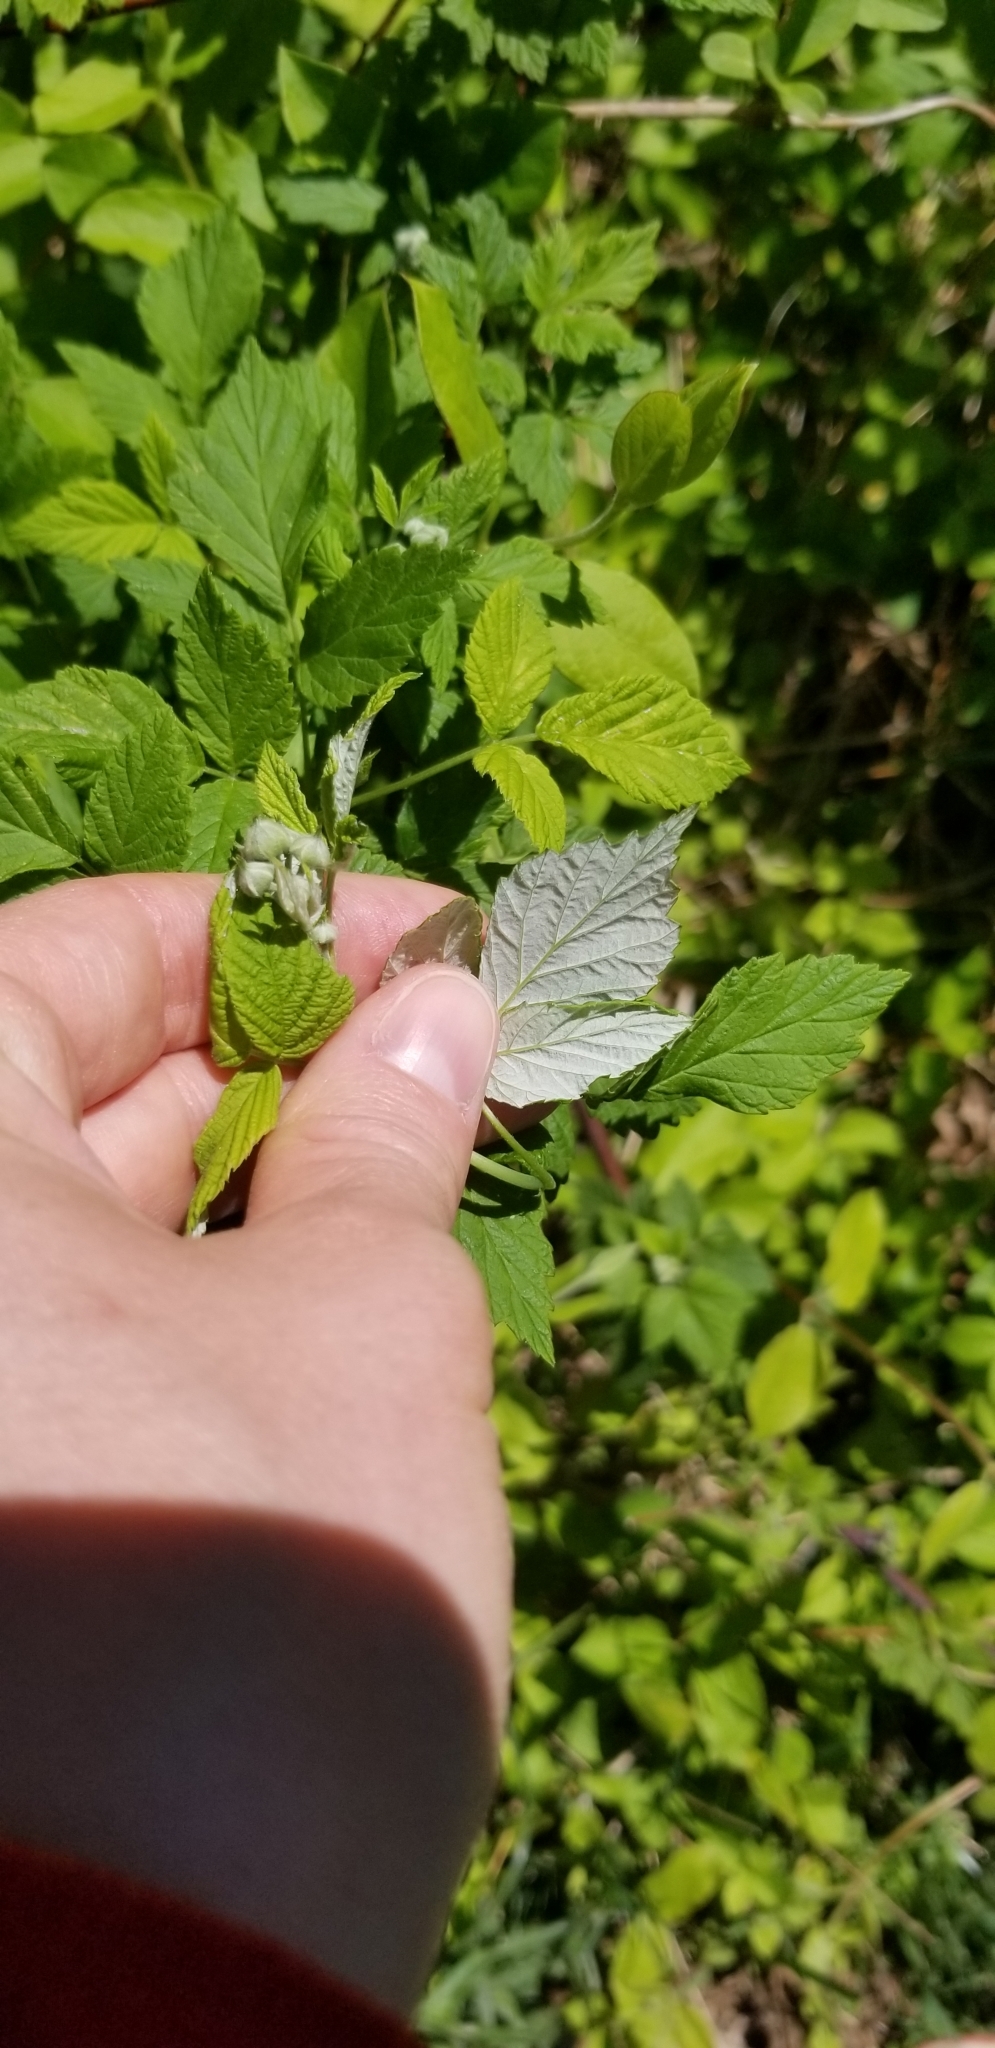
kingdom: Plantae
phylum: Tracheophyta
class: Magnoliopsida
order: Rosales
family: Rosaceae
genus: Rubus
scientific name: Rubus occidentalis
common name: Black raspberry
